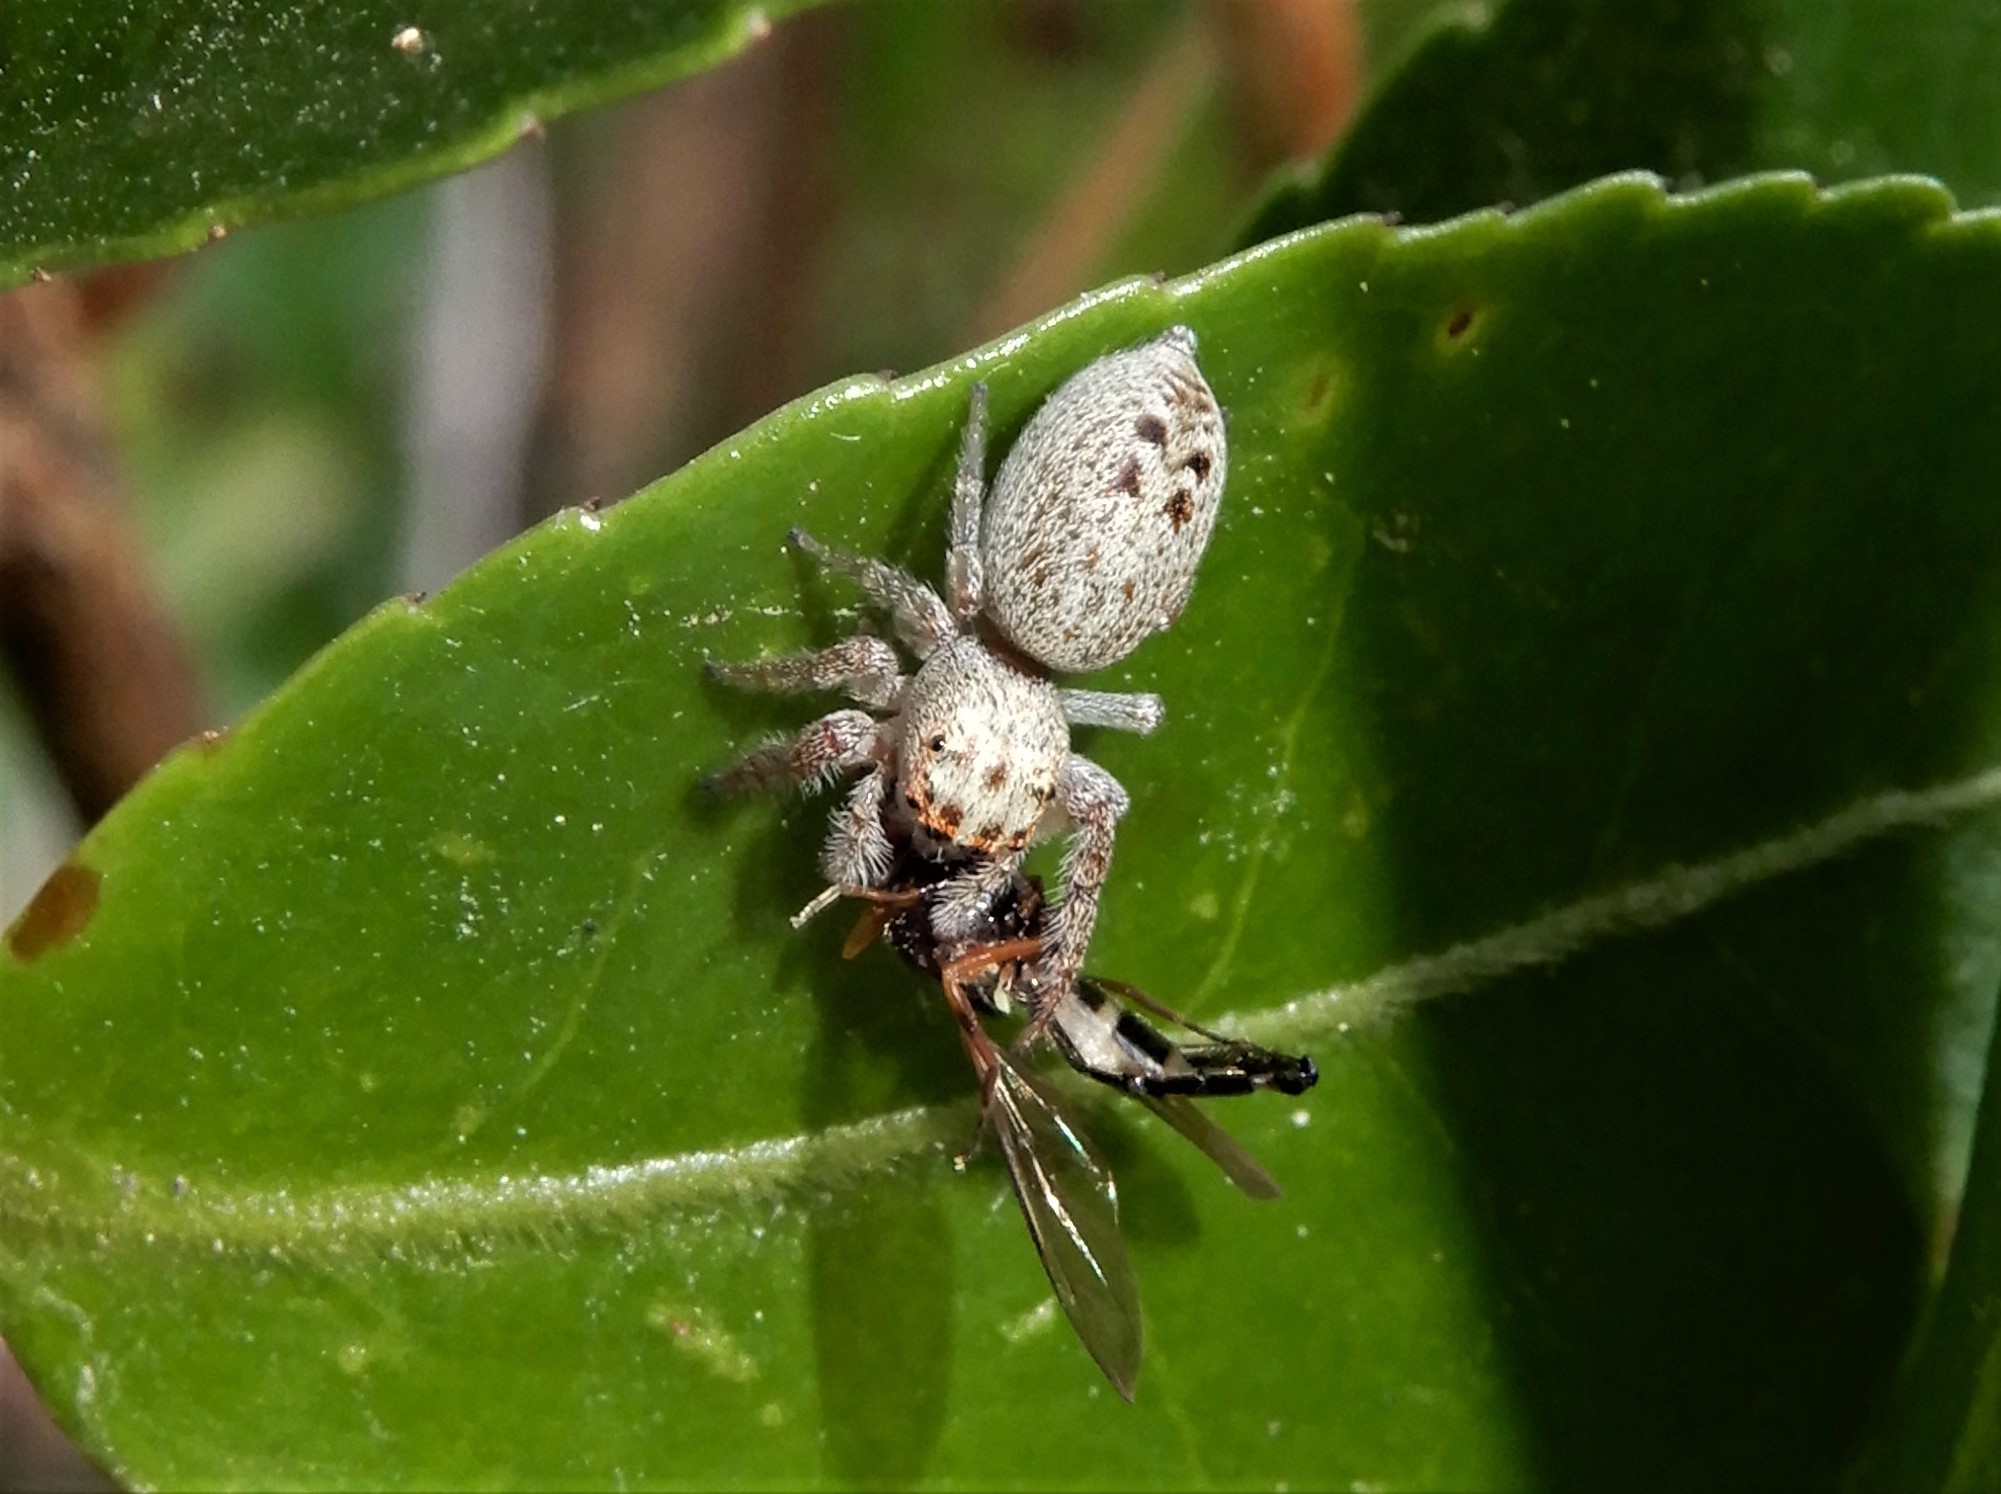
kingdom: Animalia
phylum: Arthropoda
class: Arachnida
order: Araneae
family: Salticidae
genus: Opisthoncus
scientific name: Opisthoncus polyphemus
